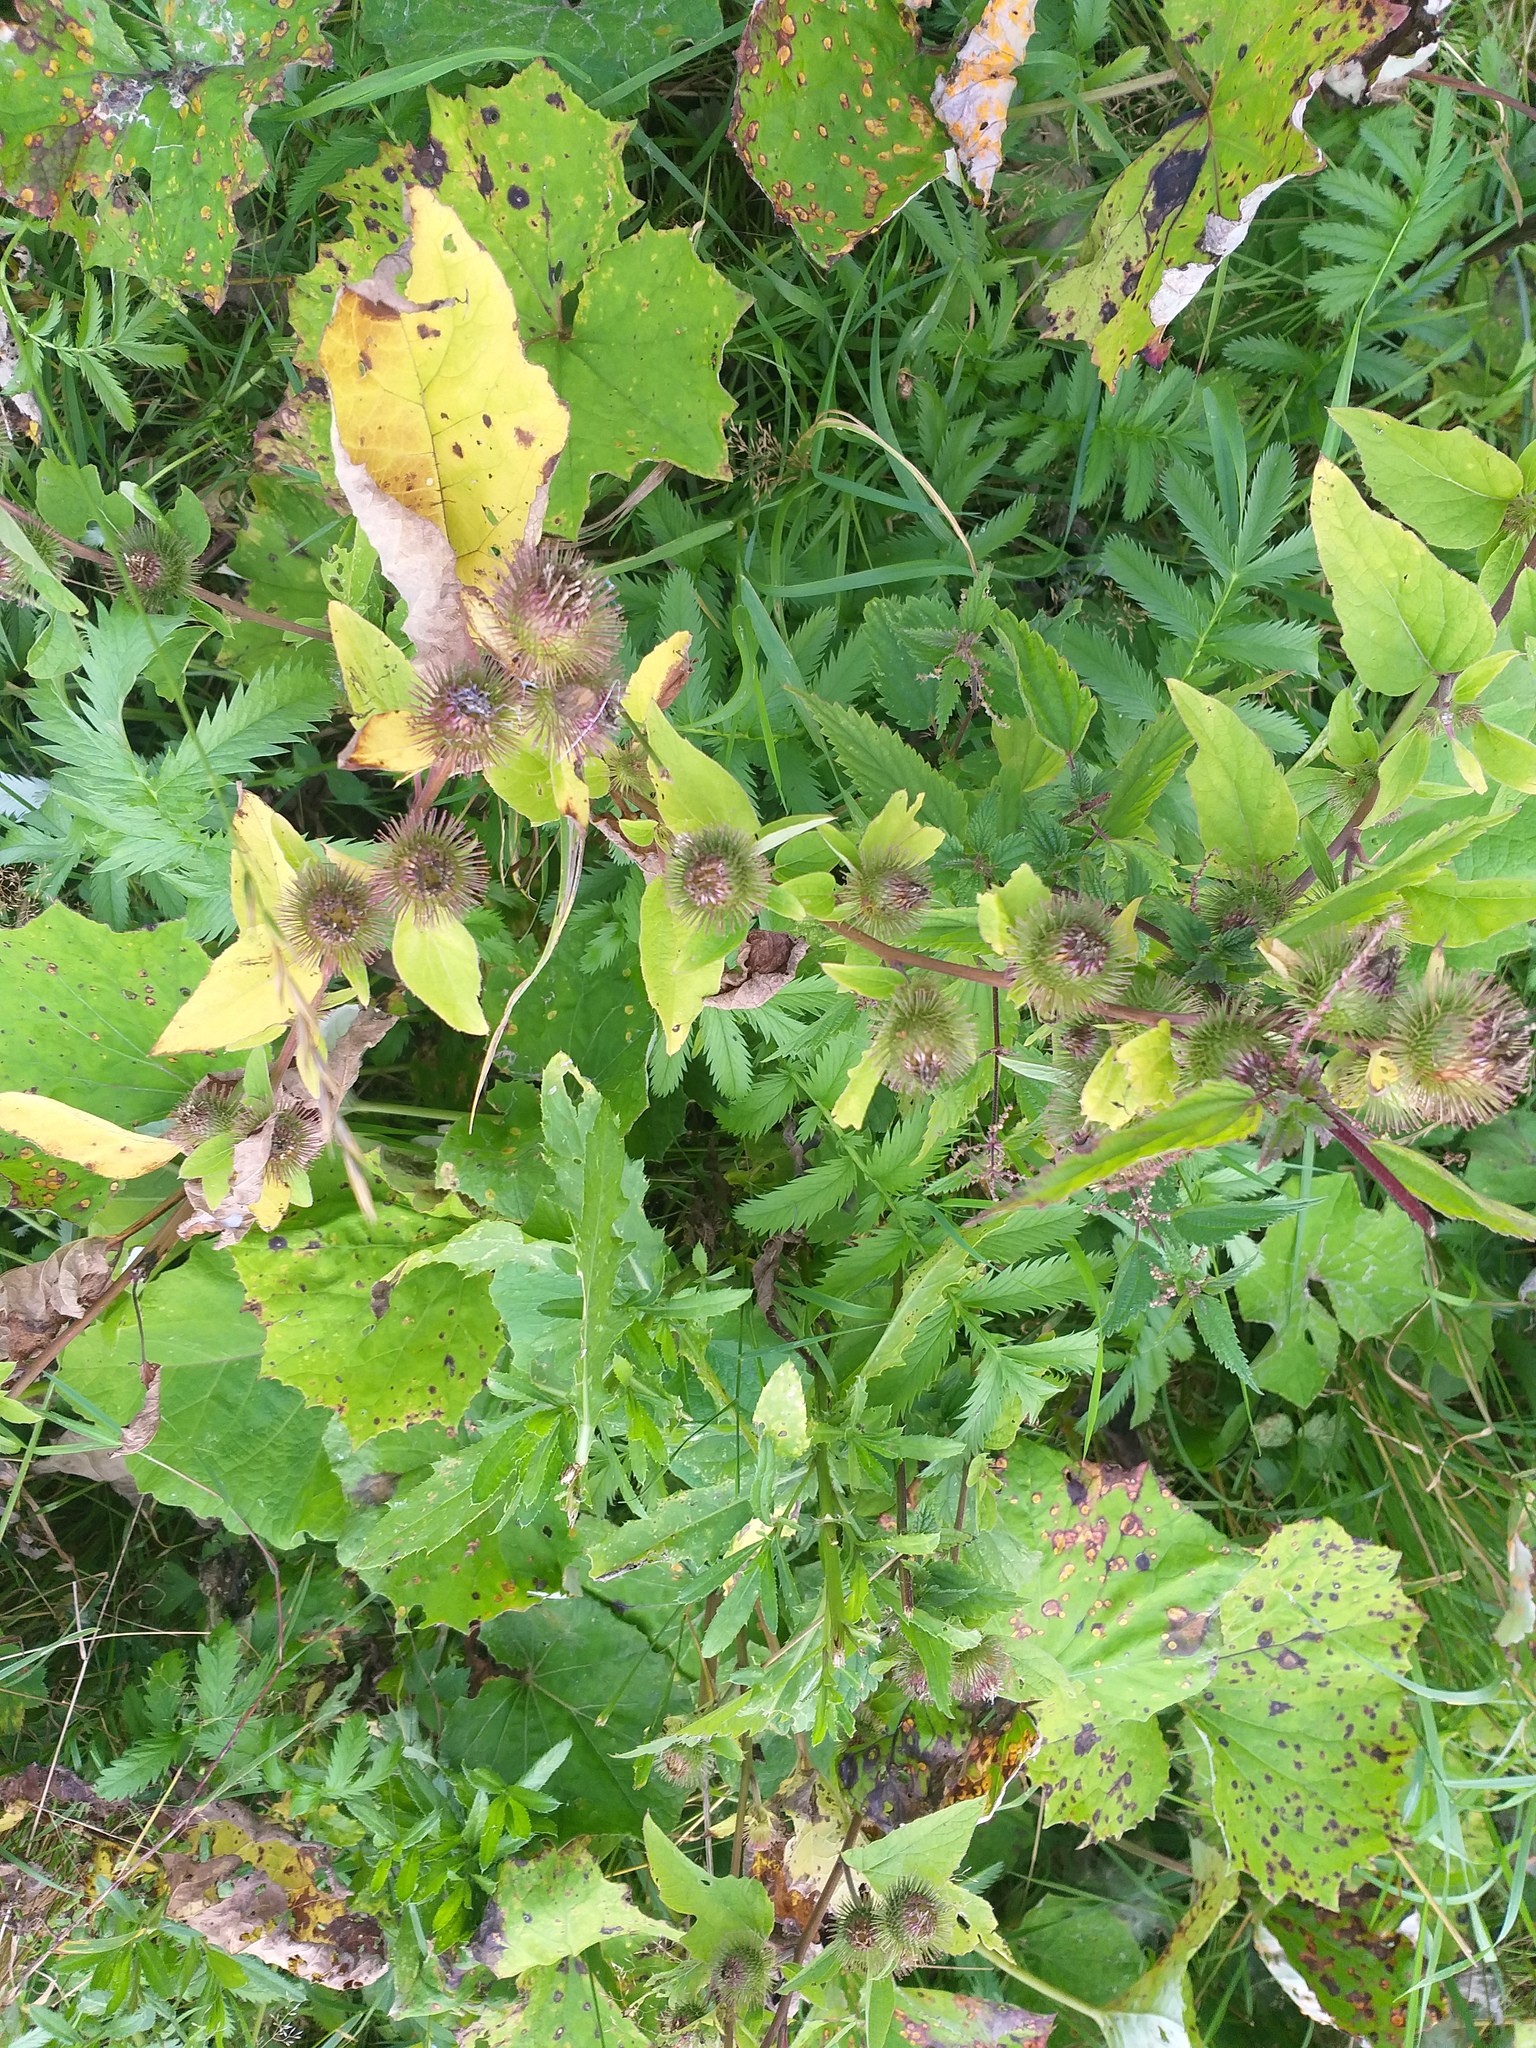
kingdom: Plantae
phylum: Tracheophyta
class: Magnoliopsida
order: Asterales
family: Asteraceae
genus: Arctium
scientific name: Arctium minus
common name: Lesser burdock
